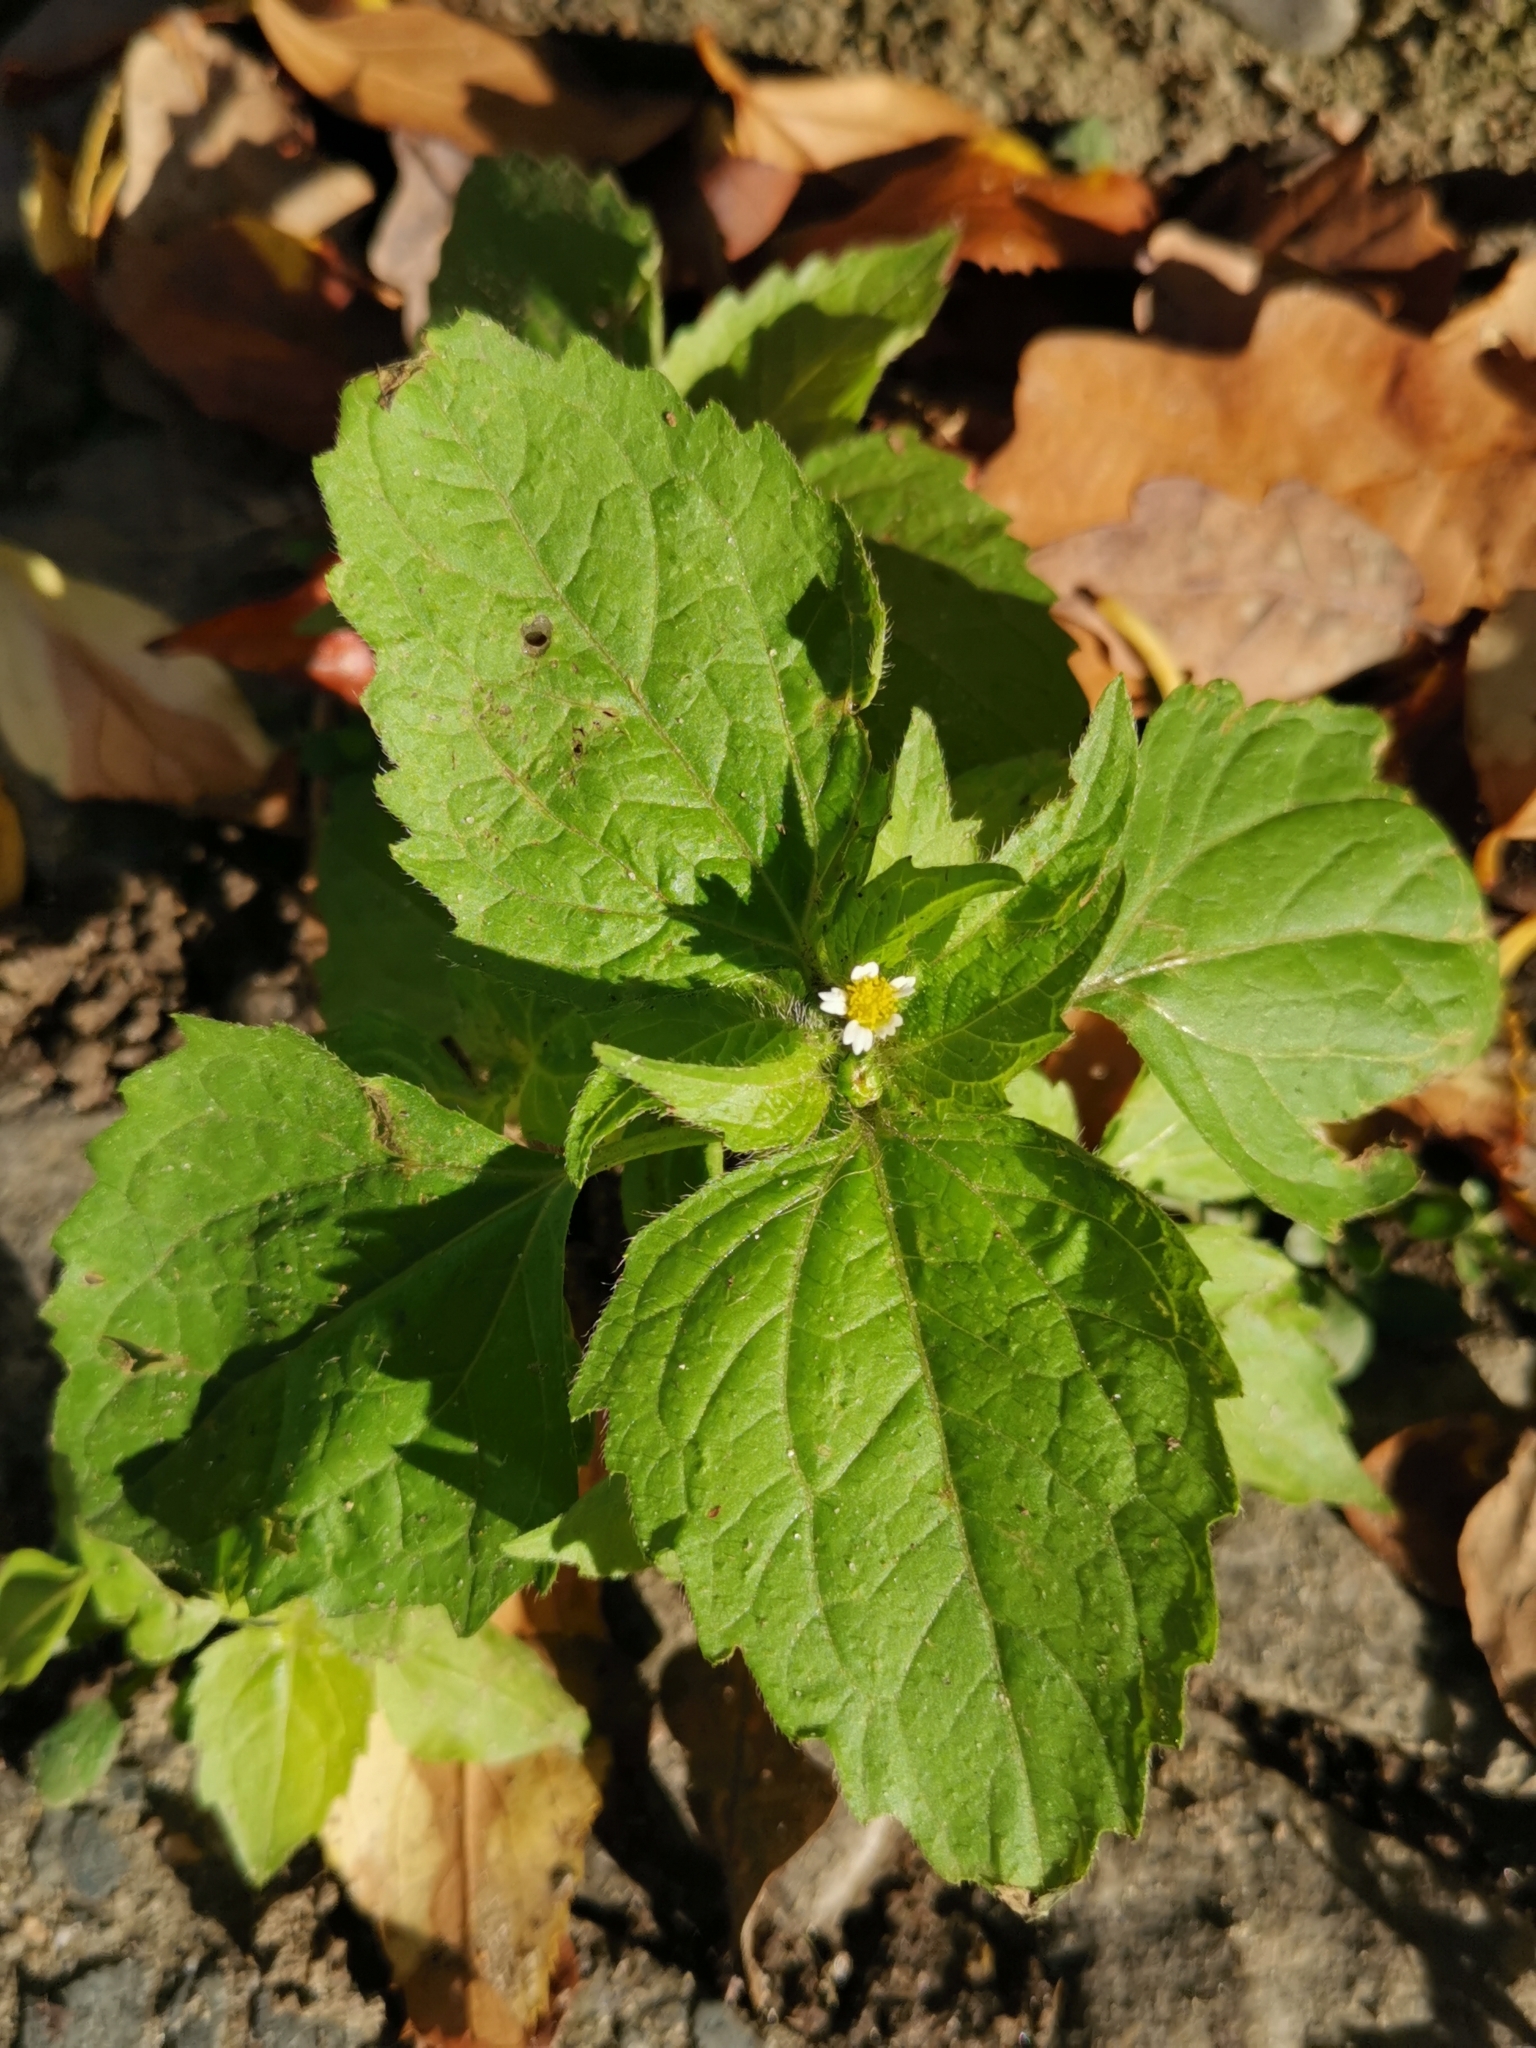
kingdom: Plantae
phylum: Tracheophyta
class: Magnoliopsida
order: Asterales
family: Asteraceae
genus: Galinsoga
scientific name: Galinsoga quadriradiata
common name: Shaggy soldier
